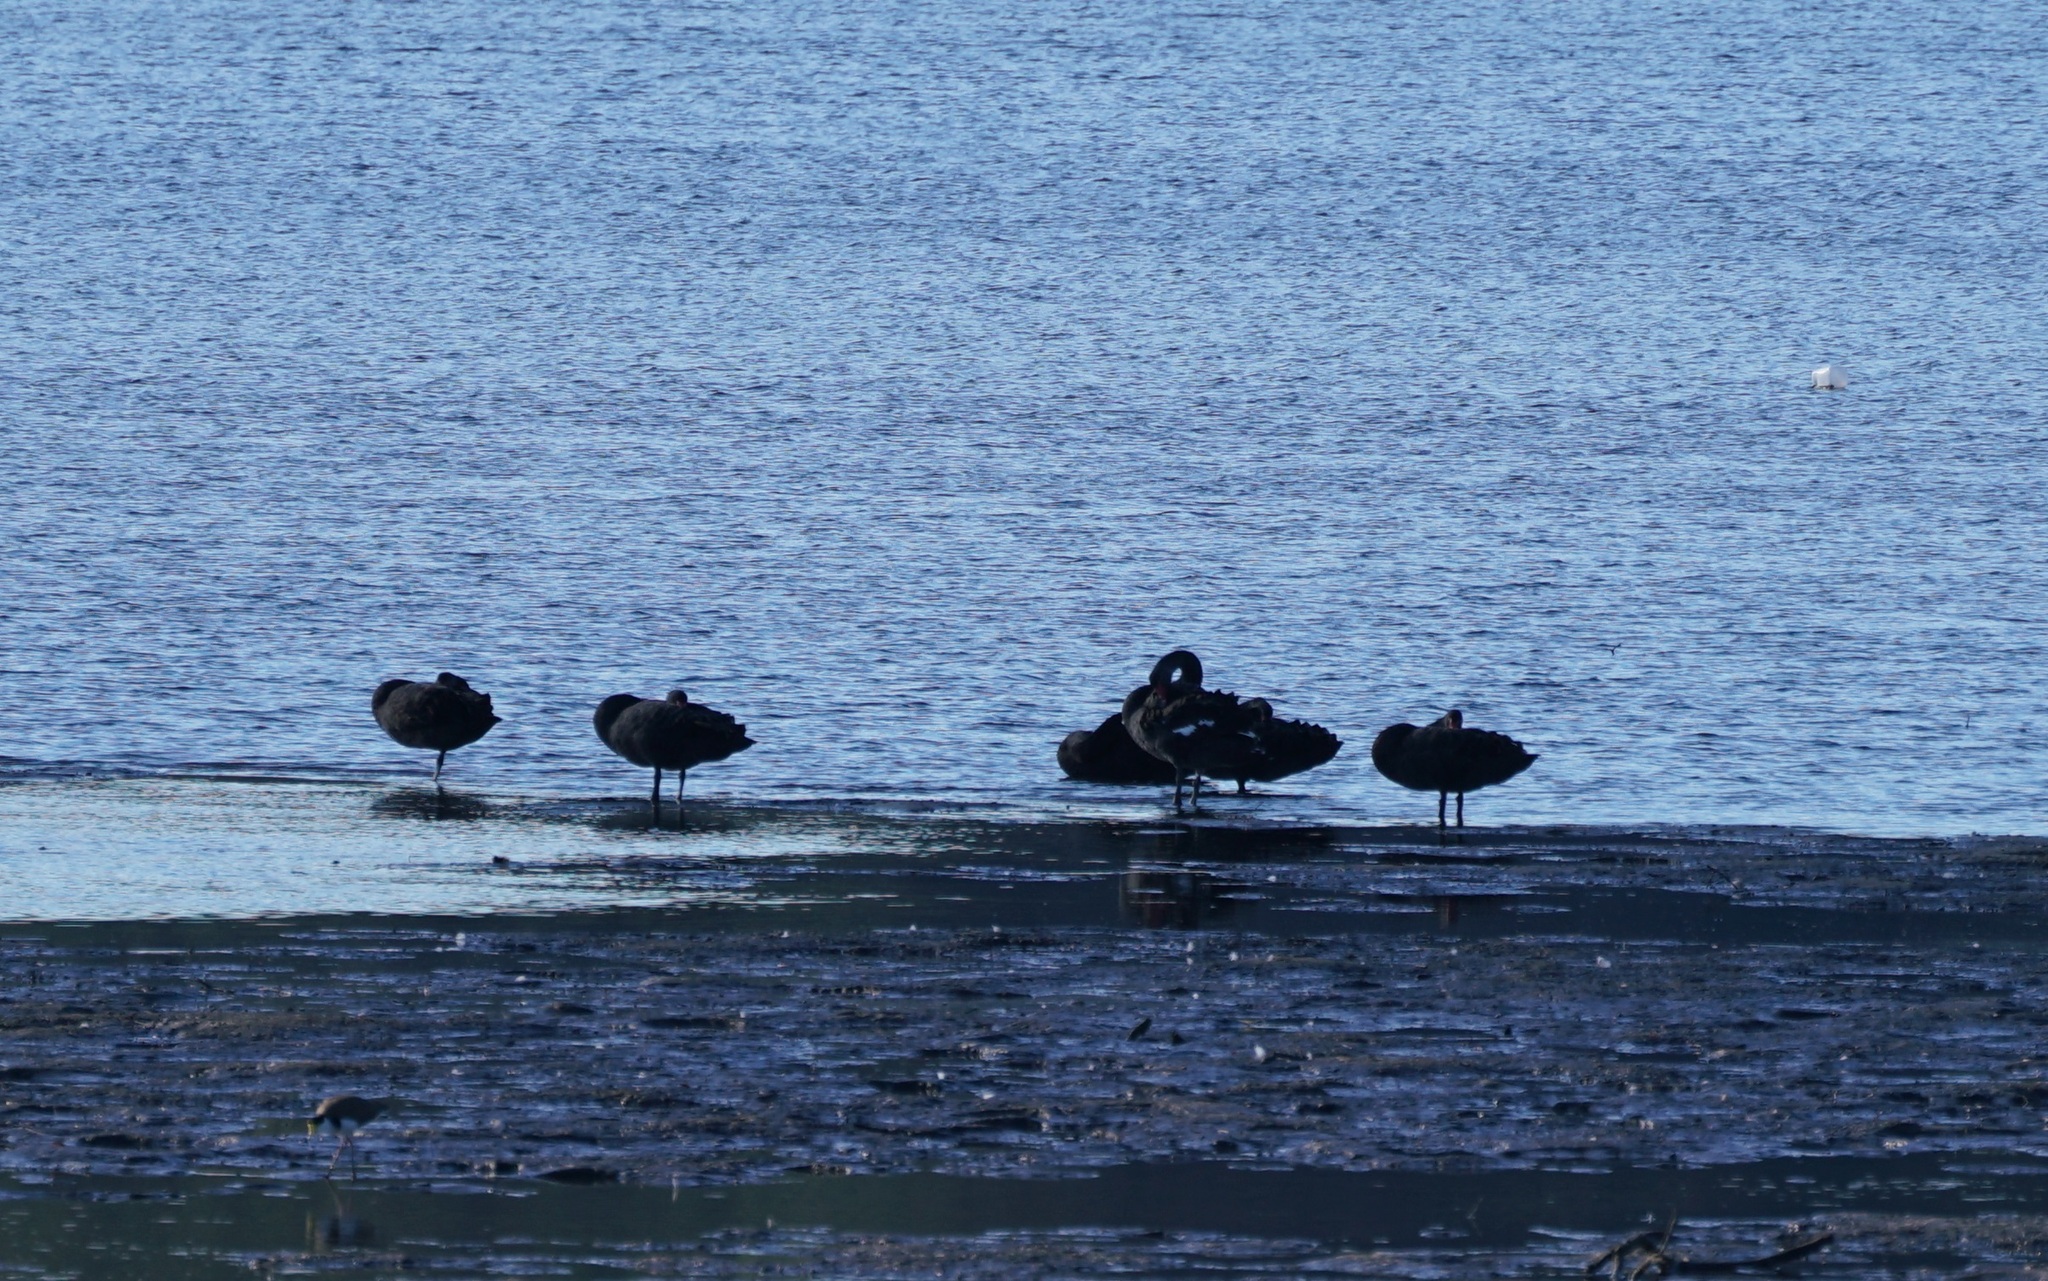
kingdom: Animalia
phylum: Chordata
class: Aves
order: Anseriformes
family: Anatidae
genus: Cygnus
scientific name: Cygnus atratus
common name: Black swan
